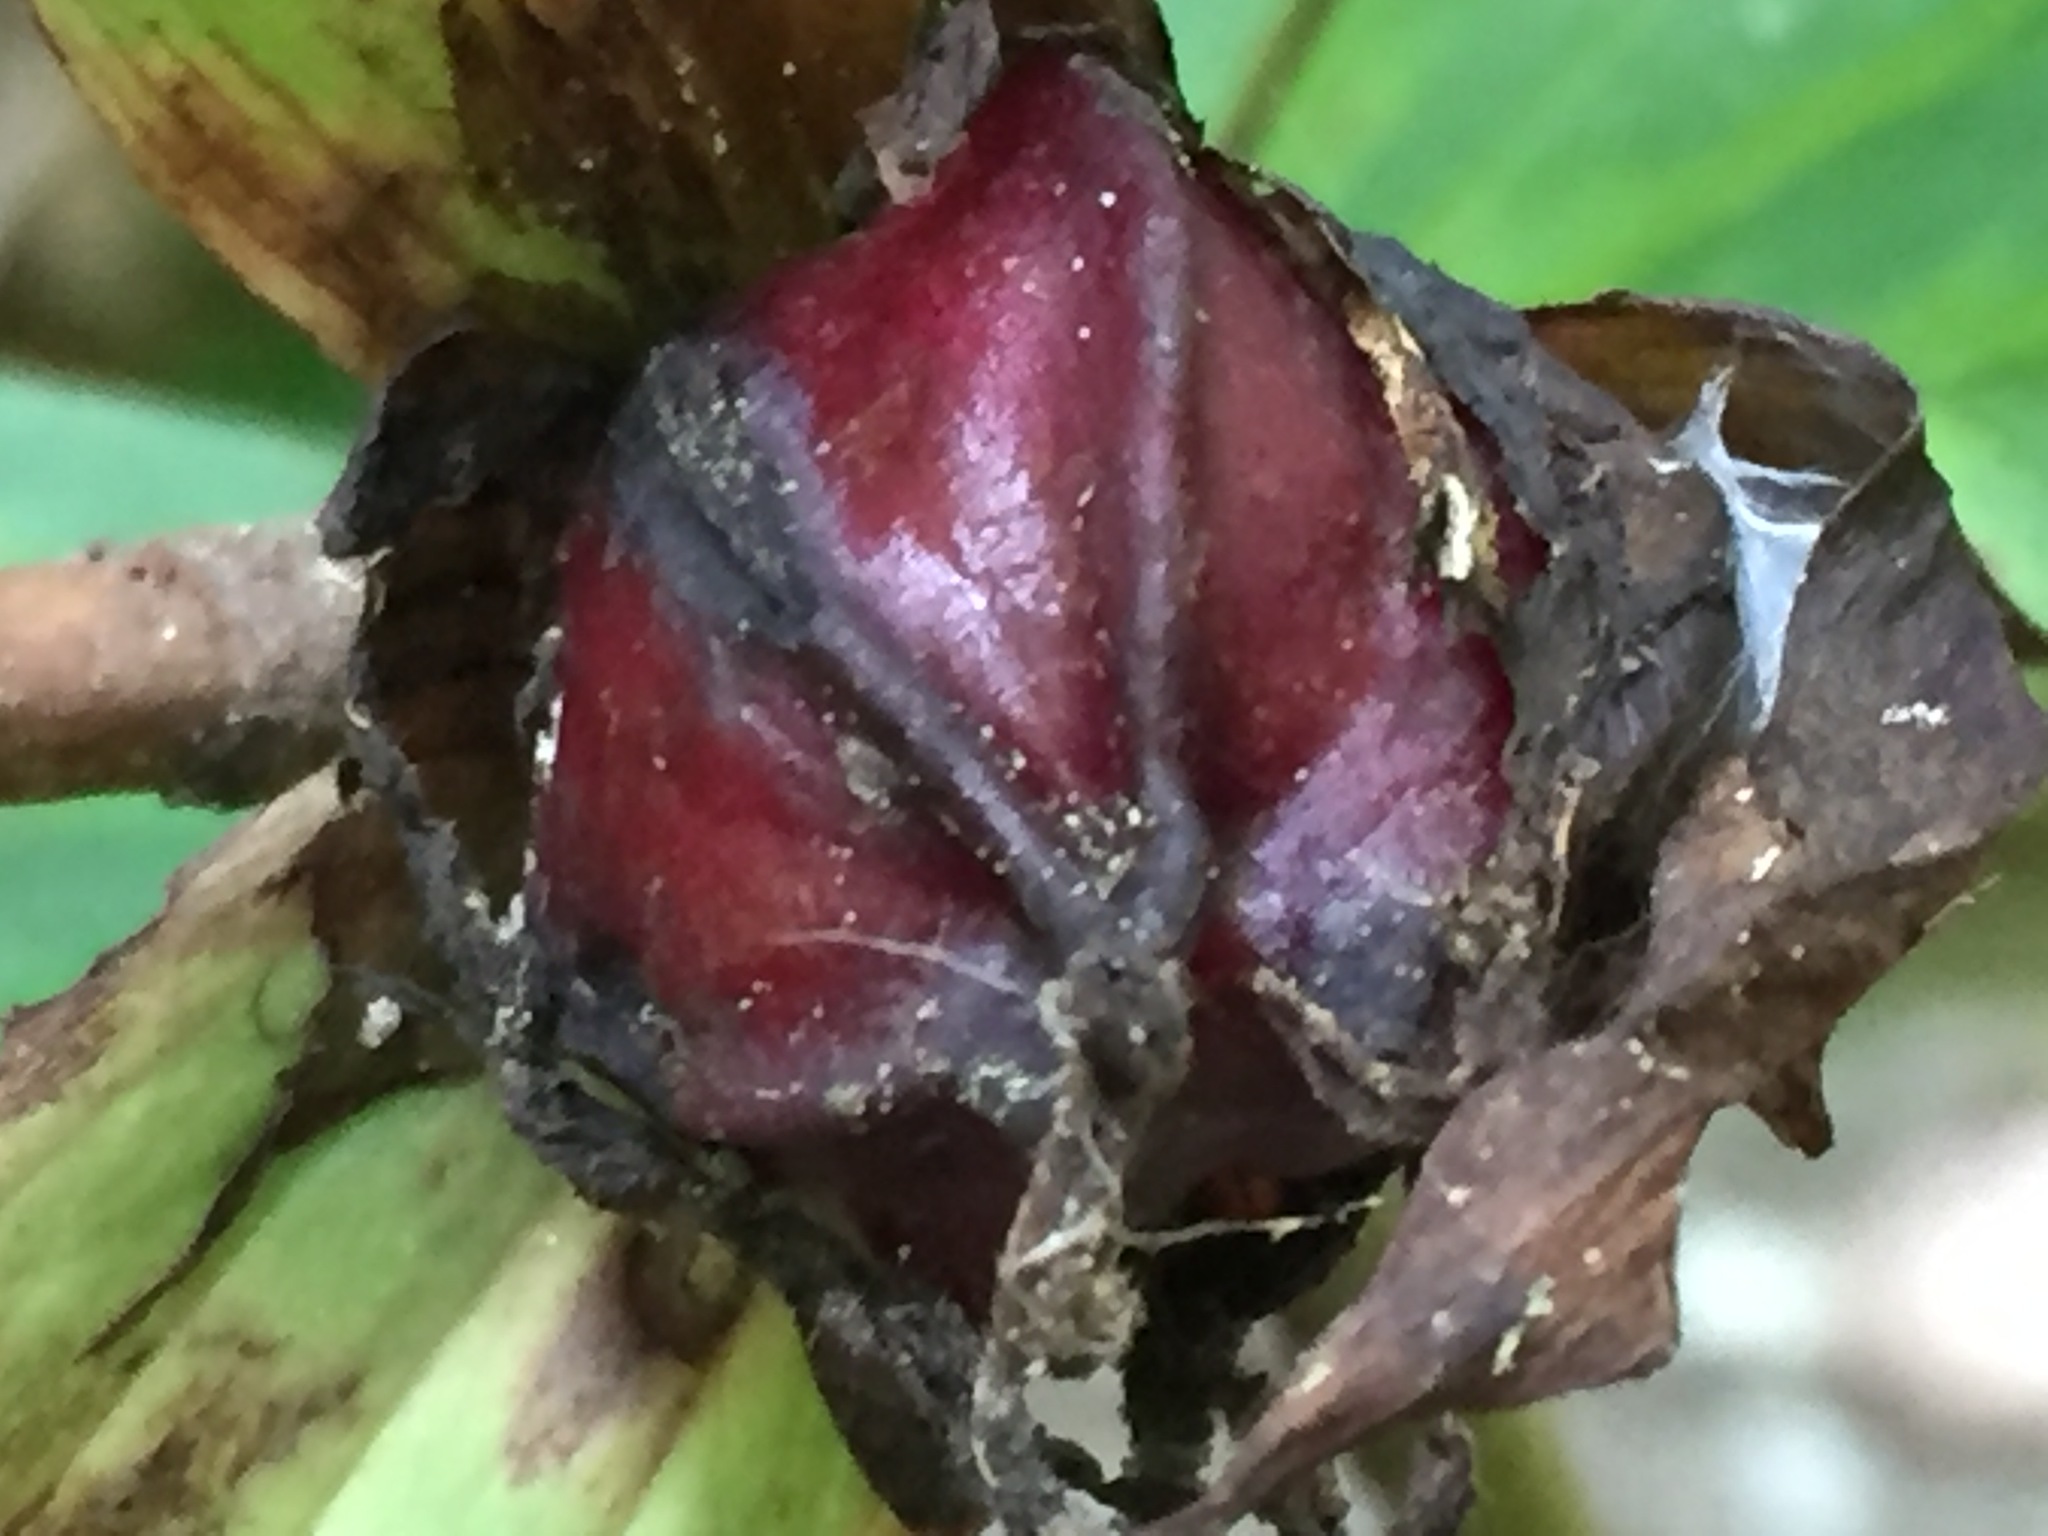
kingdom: Plantae
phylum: Tracheophyta
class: Liliopsida
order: Liliales
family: Melanthiaceae
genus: Trillium
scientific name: Trillium erectum
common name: Purple trillium
